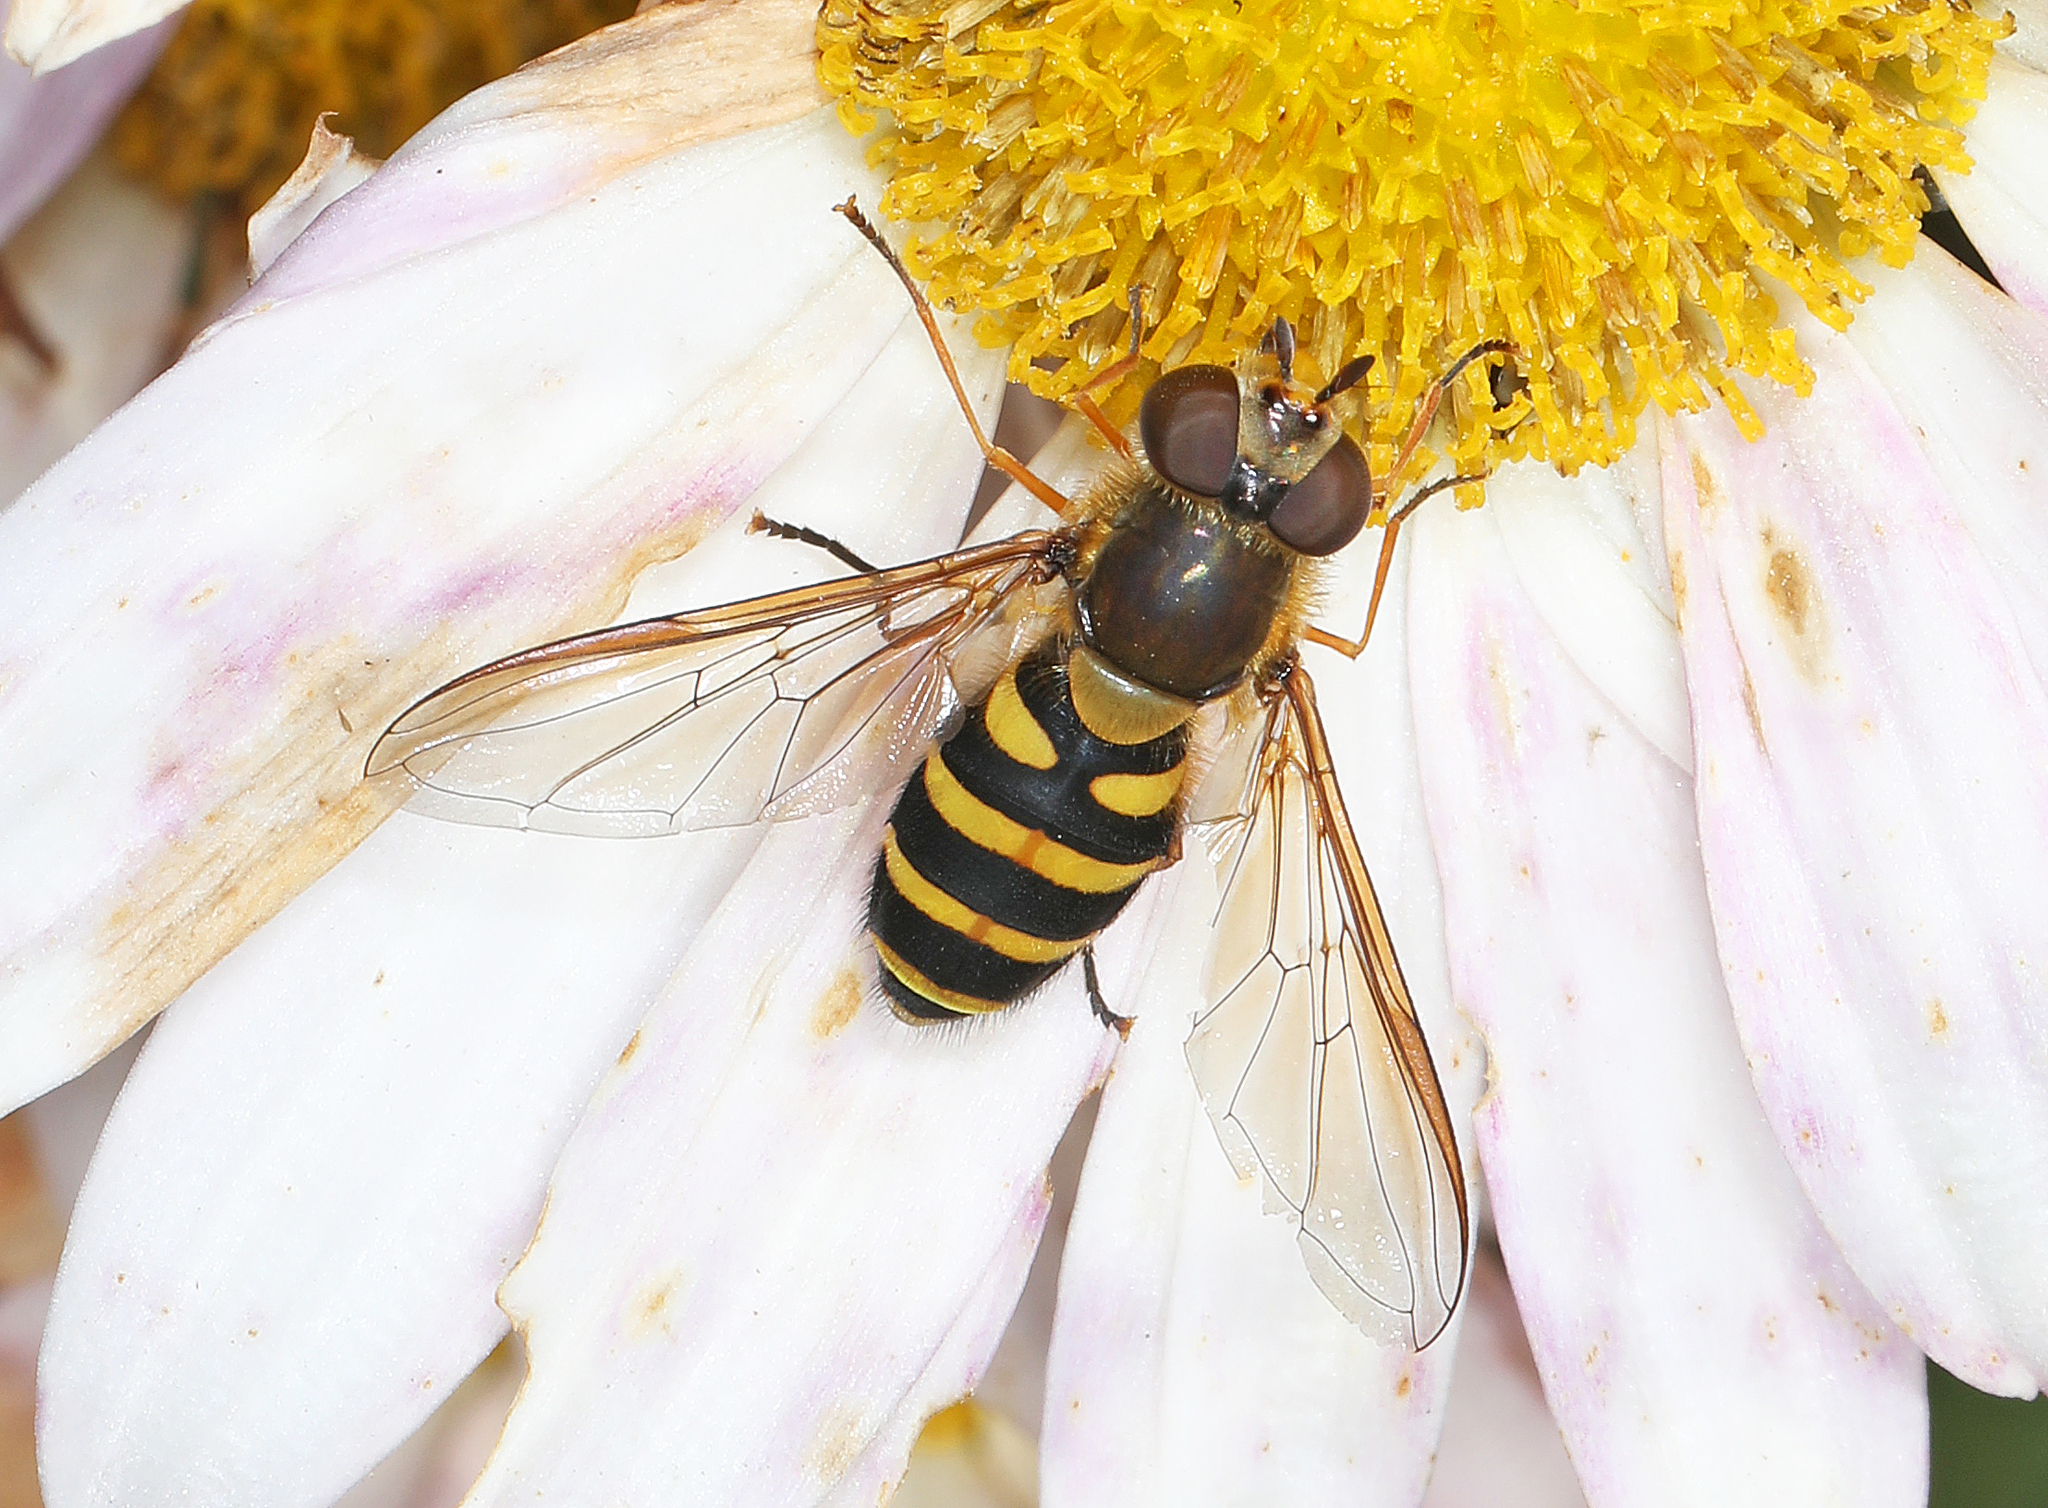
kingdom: Animalia
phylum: Arthropoda
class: Insecta
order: Diptera
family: Syrphidae
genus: Syrphus
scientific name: Syrphus torvus
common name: Hairy-eyed flower fly
